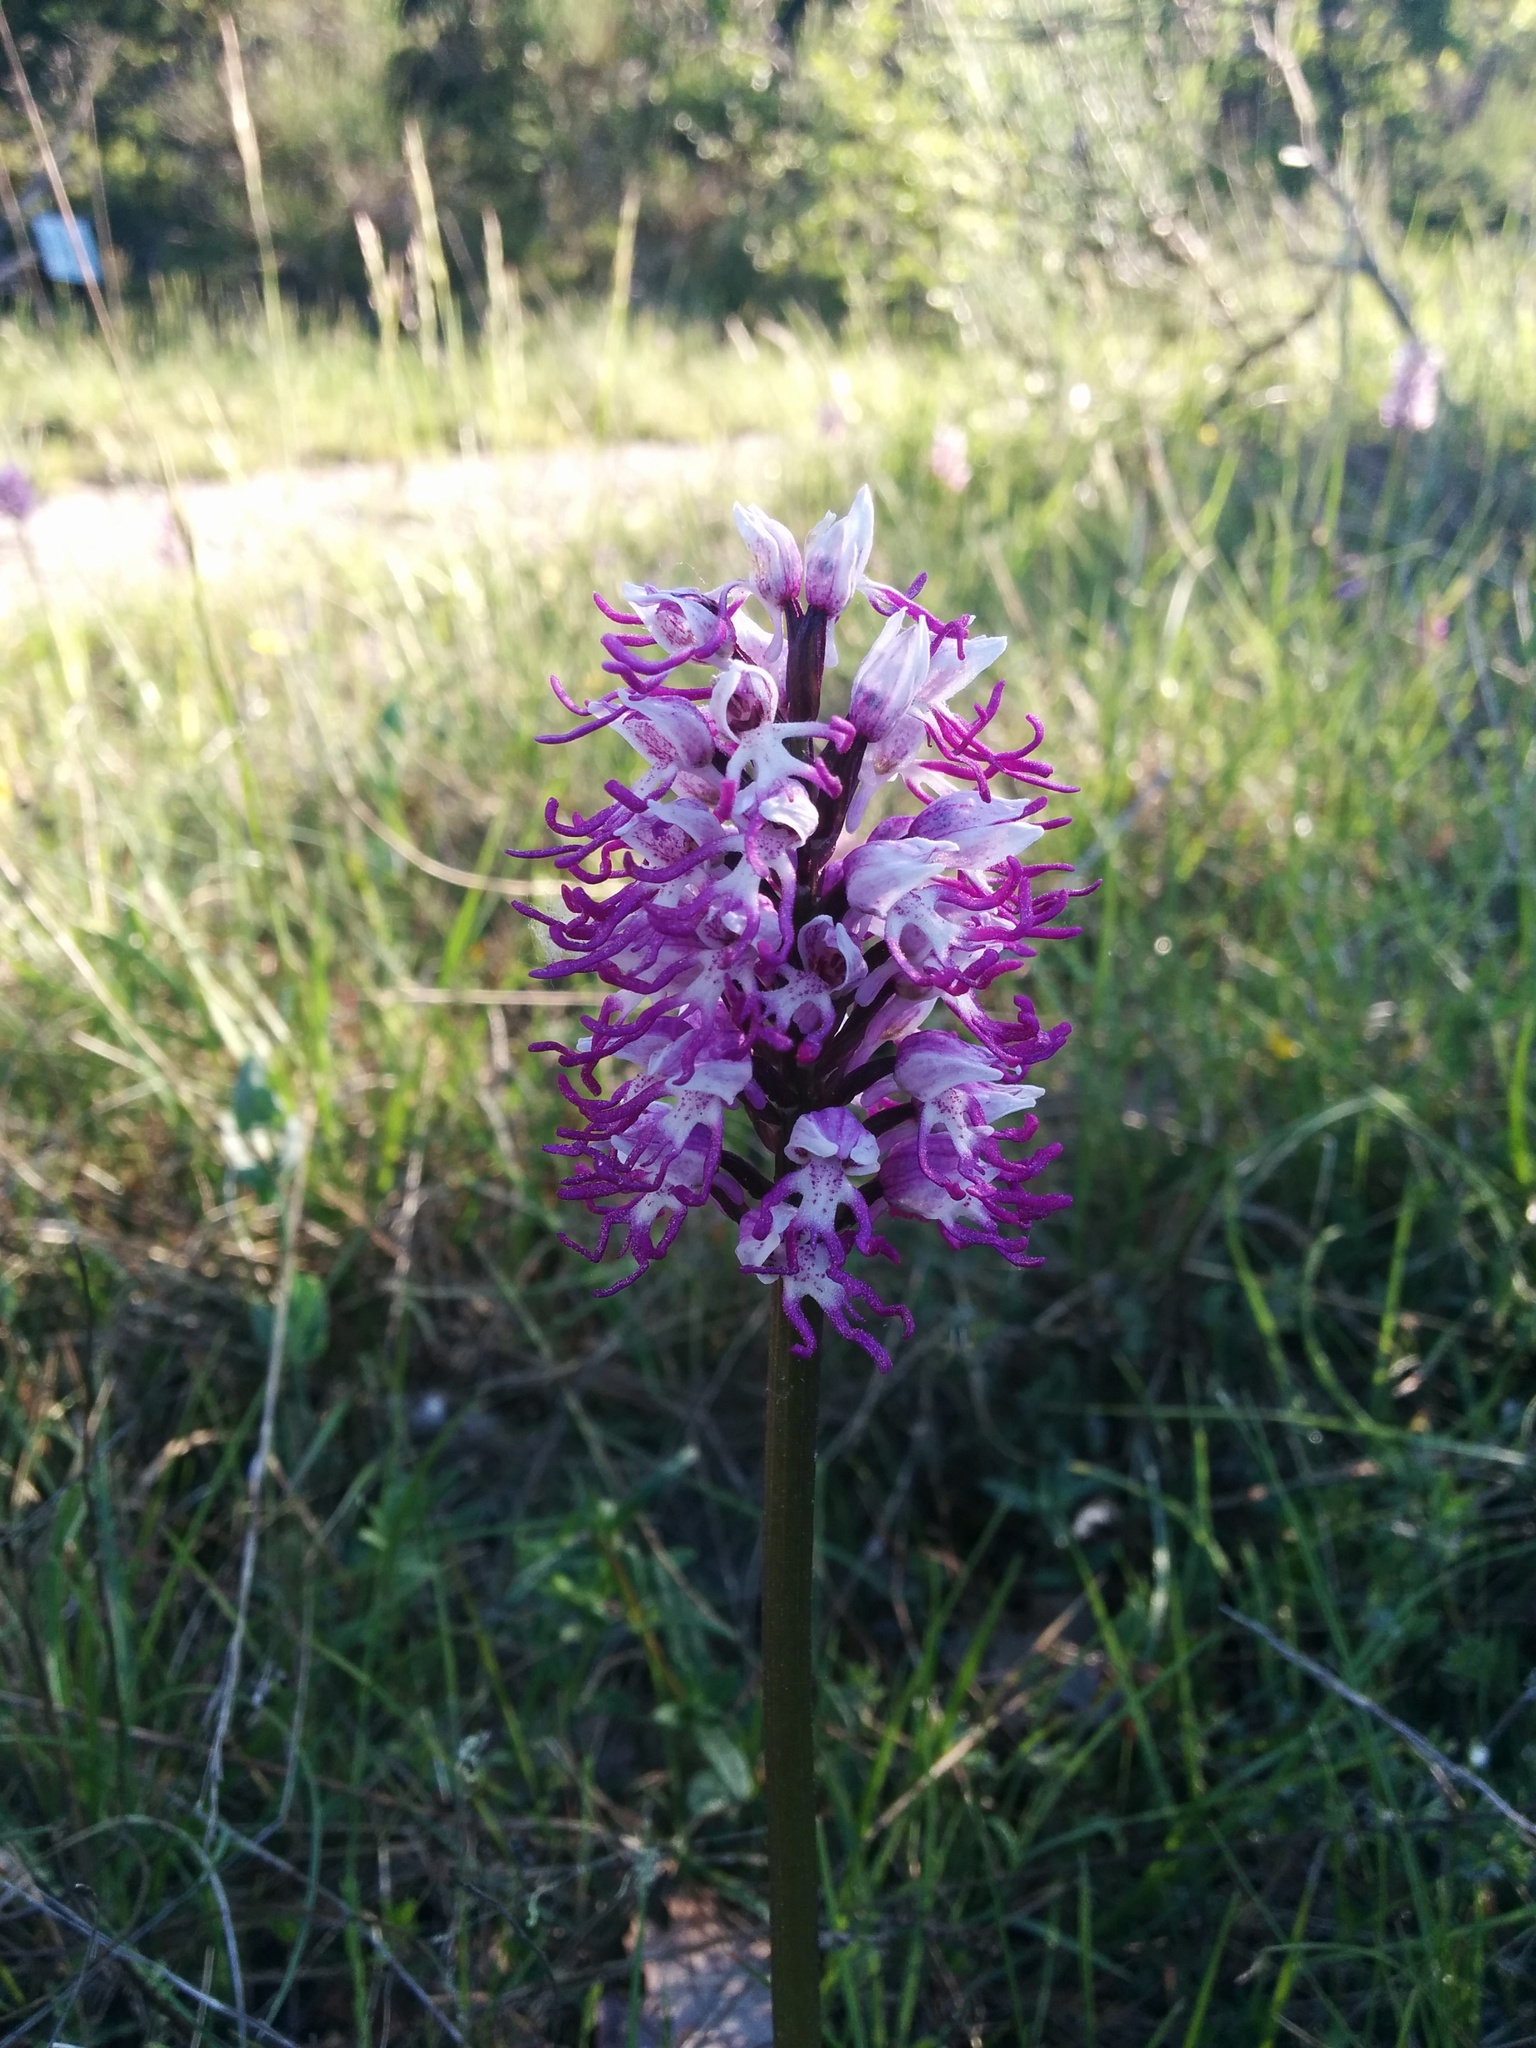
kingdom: Plantae
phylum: Tracheophyta
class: Liliopsida
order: Asparagales
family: Orchidaceae
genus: Orchis
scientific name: Orchis simia
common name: Monkey orchid
